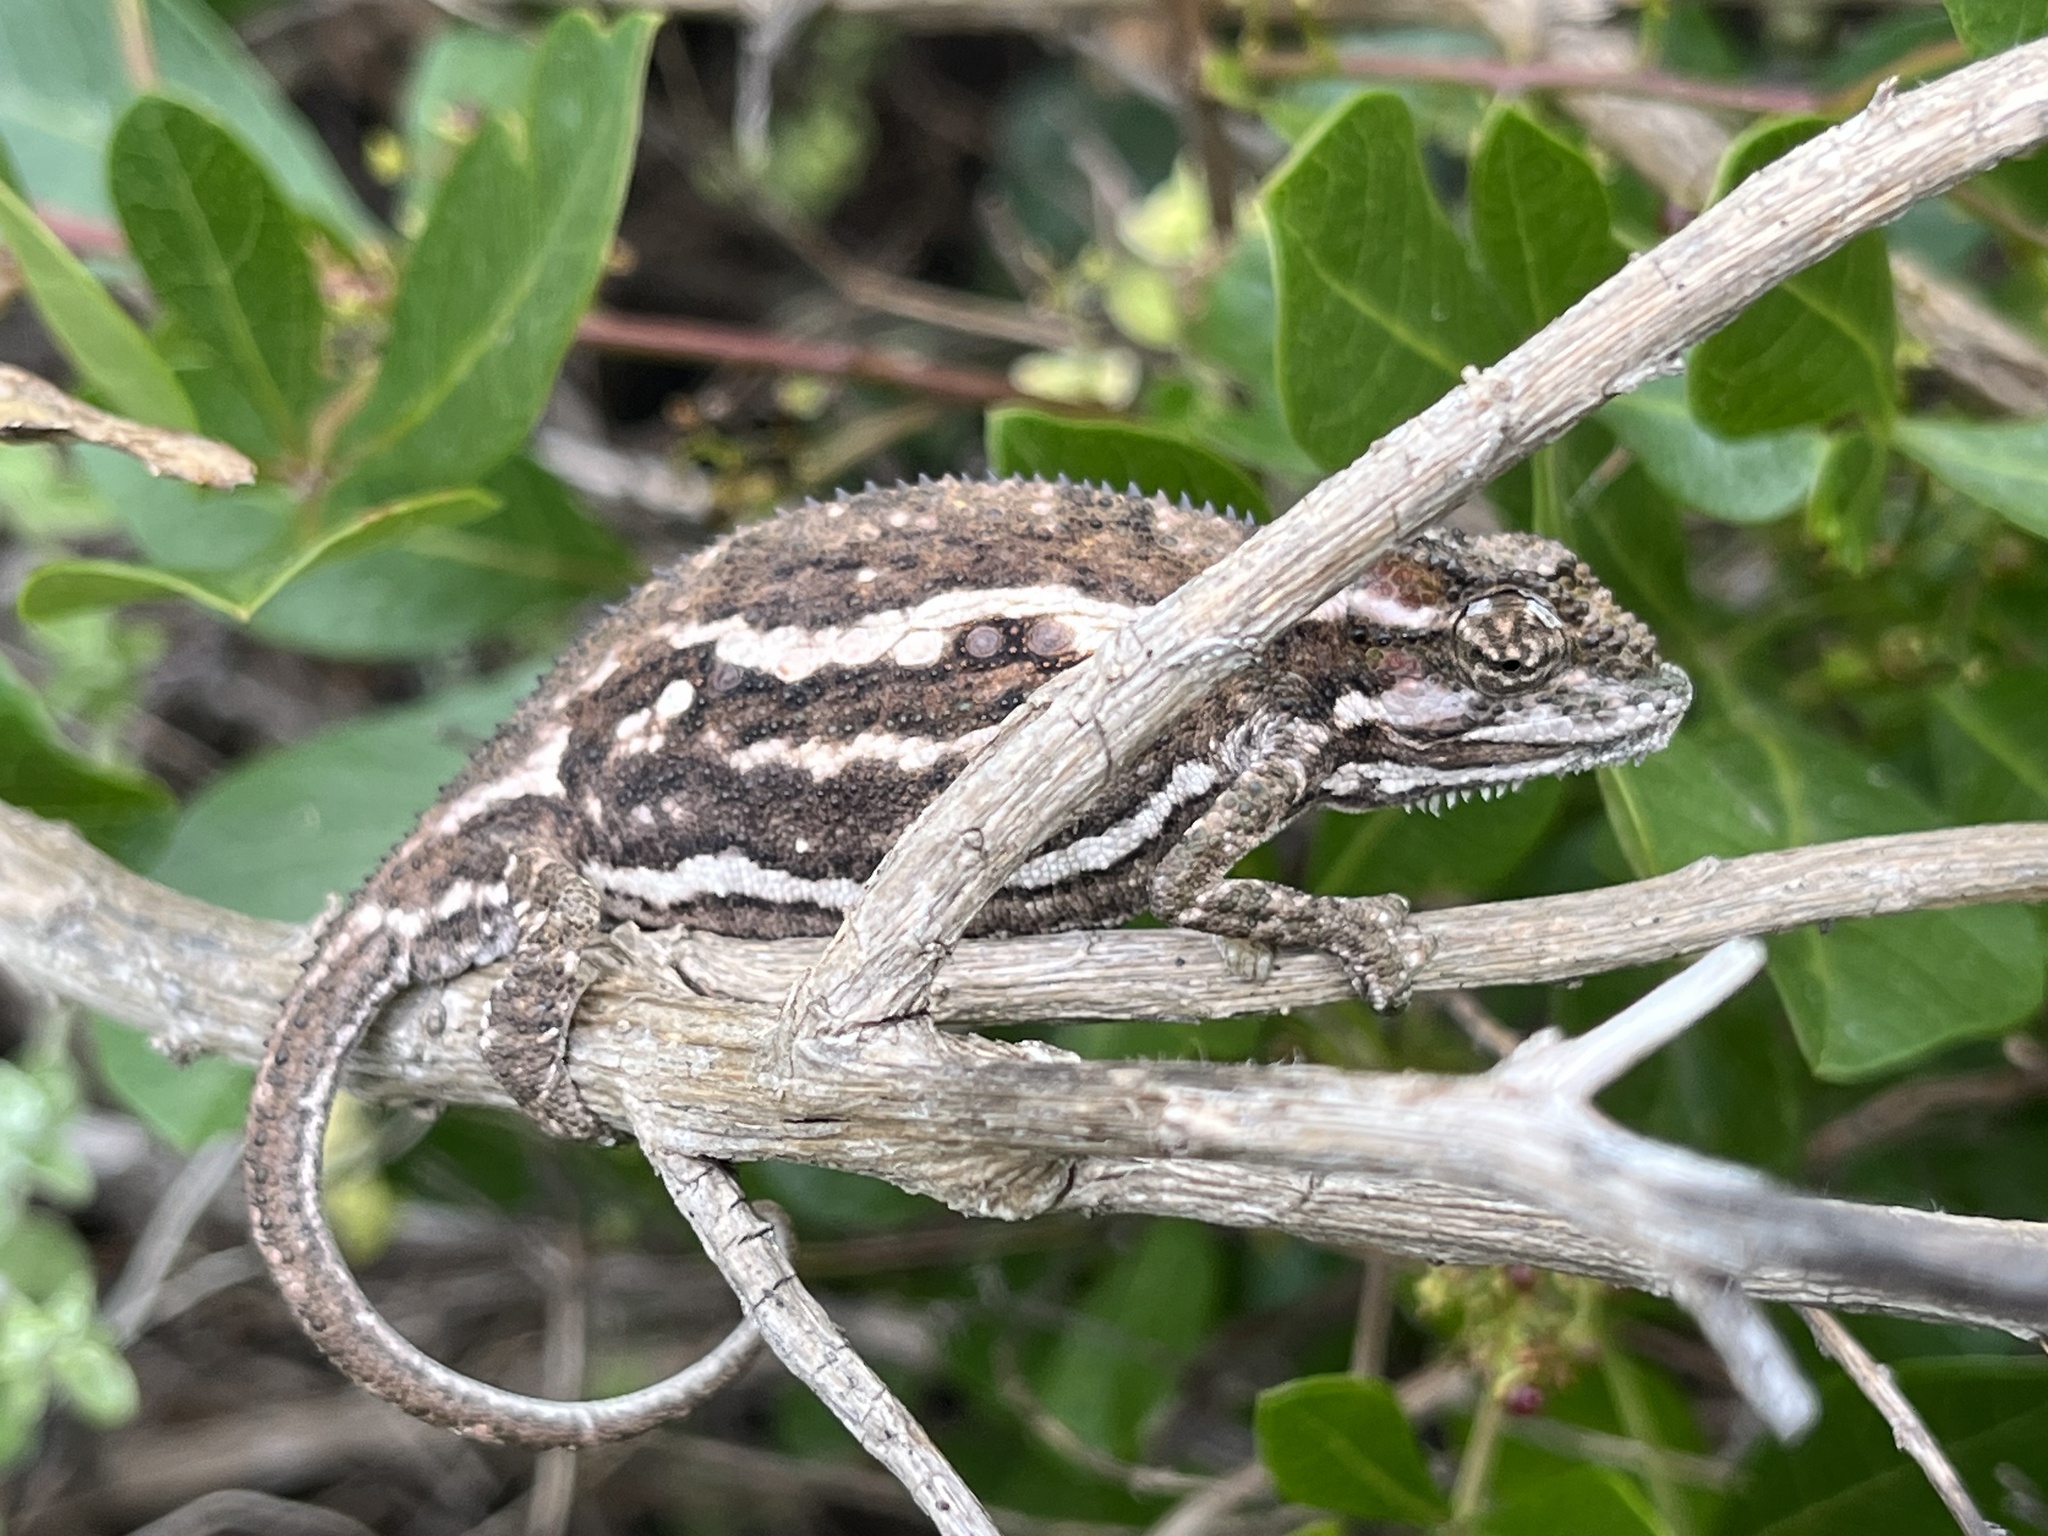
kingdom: Animalia
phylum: Chordata
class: Squamata
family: Chamaeleonidae
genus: Bradypodion
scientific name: Bradypodion pumilum
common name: Cape dwarf chameleon
